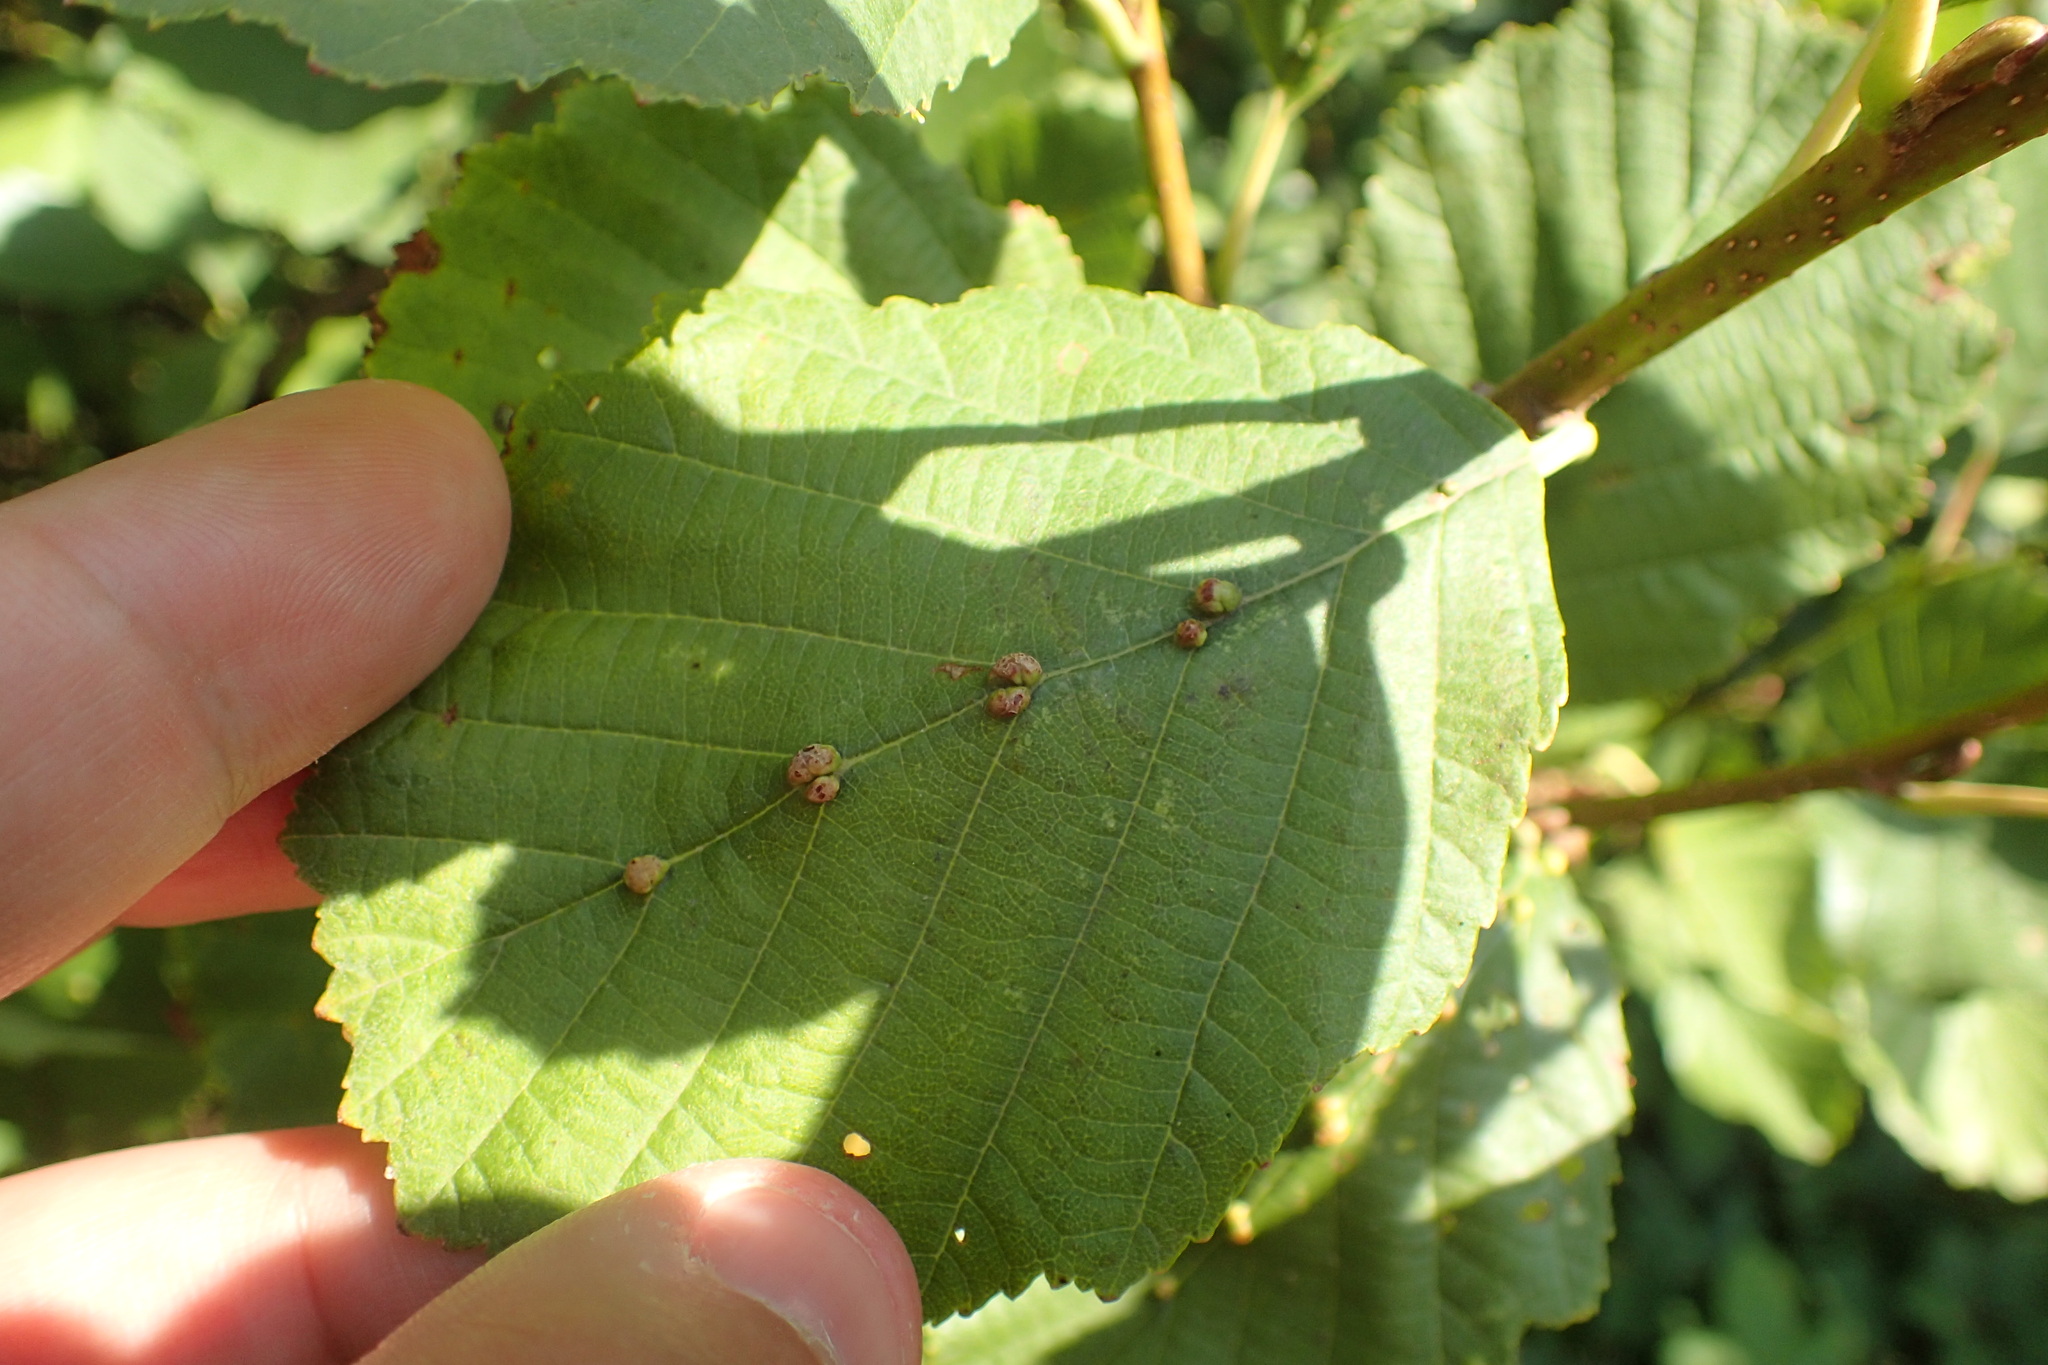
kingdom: Animalia
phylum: Arthropoda
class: Arachnida
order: Trombidiformes
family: Eriophyidae
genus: Eriophyes
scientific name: Eriophyes inangulis
